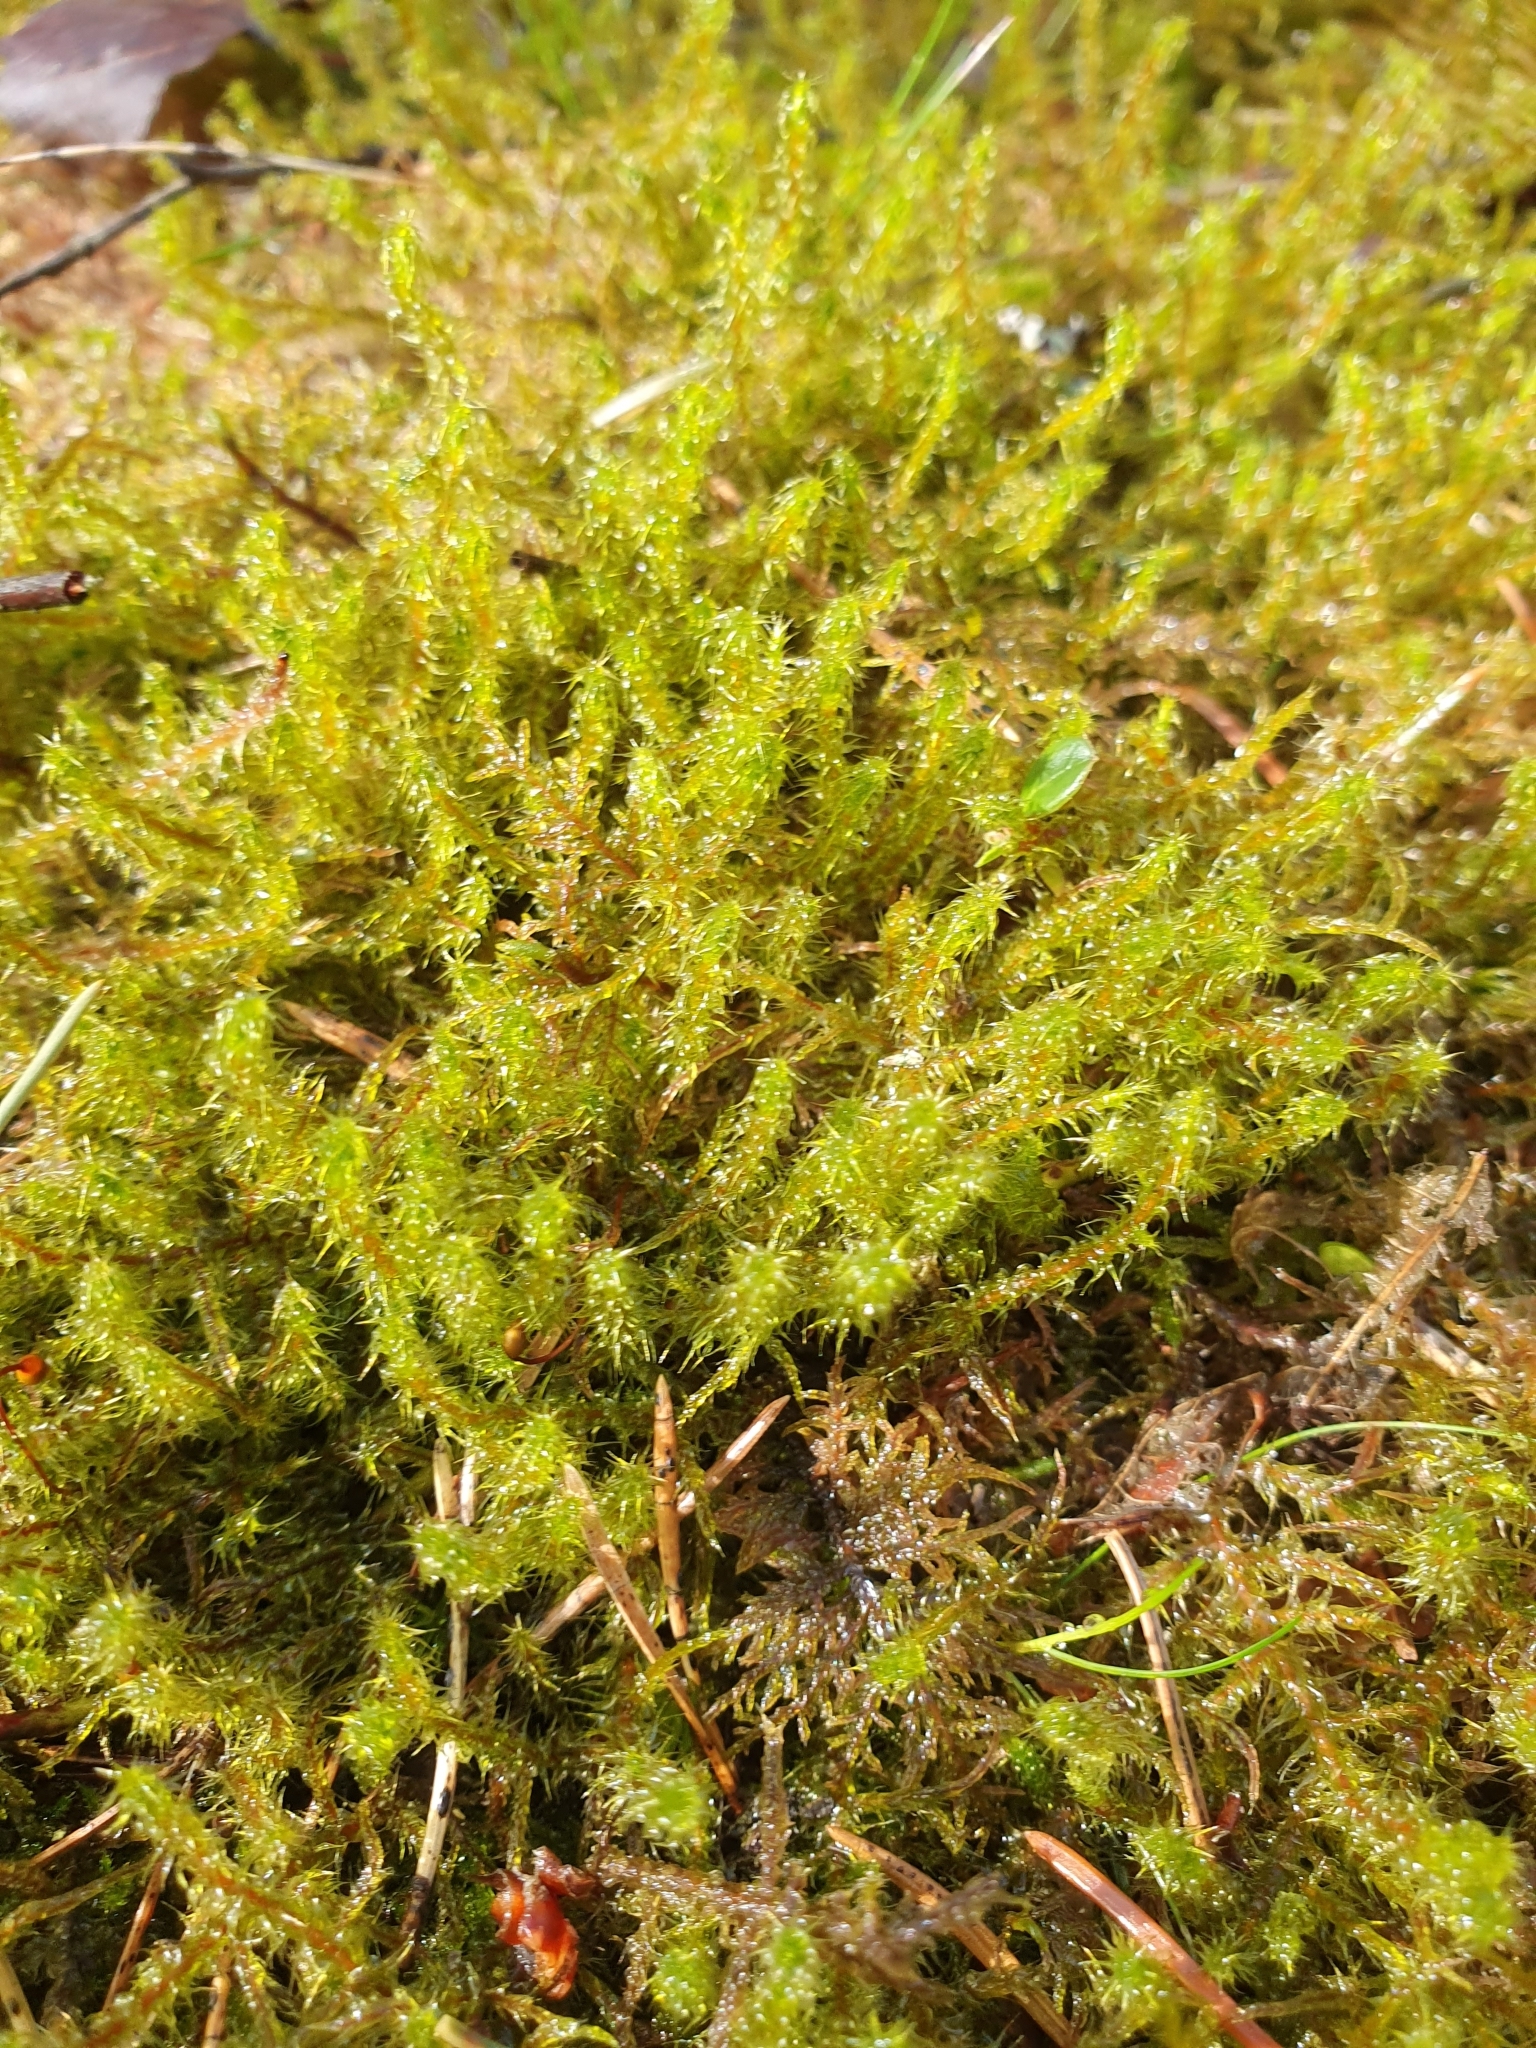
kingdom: Plantae
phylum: Bryophyta
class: Bryopsida
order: Hypnales
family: Hylocomiaceae
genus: Rhytidiadelphus
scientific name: Rhytidiadelphus squarrosus
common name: Springy turf-moss
